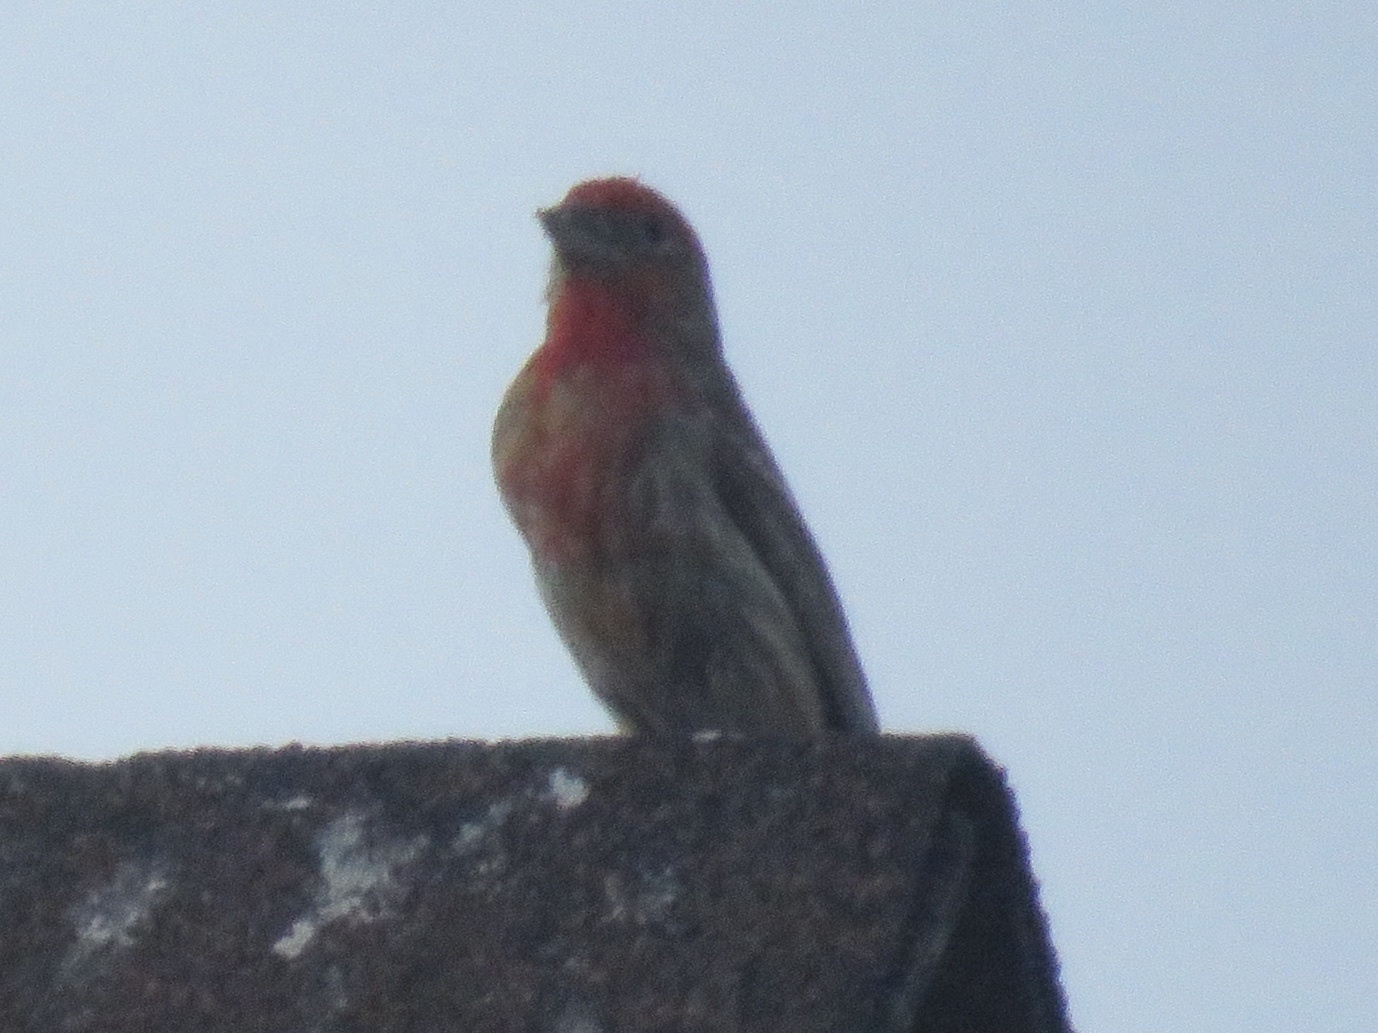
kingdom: Animalia
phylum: Chordata
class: Aves
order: Passeriformes
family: Fringillidae
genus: Haemorhous
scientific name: Haemorhous mexicanus
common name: House finch
